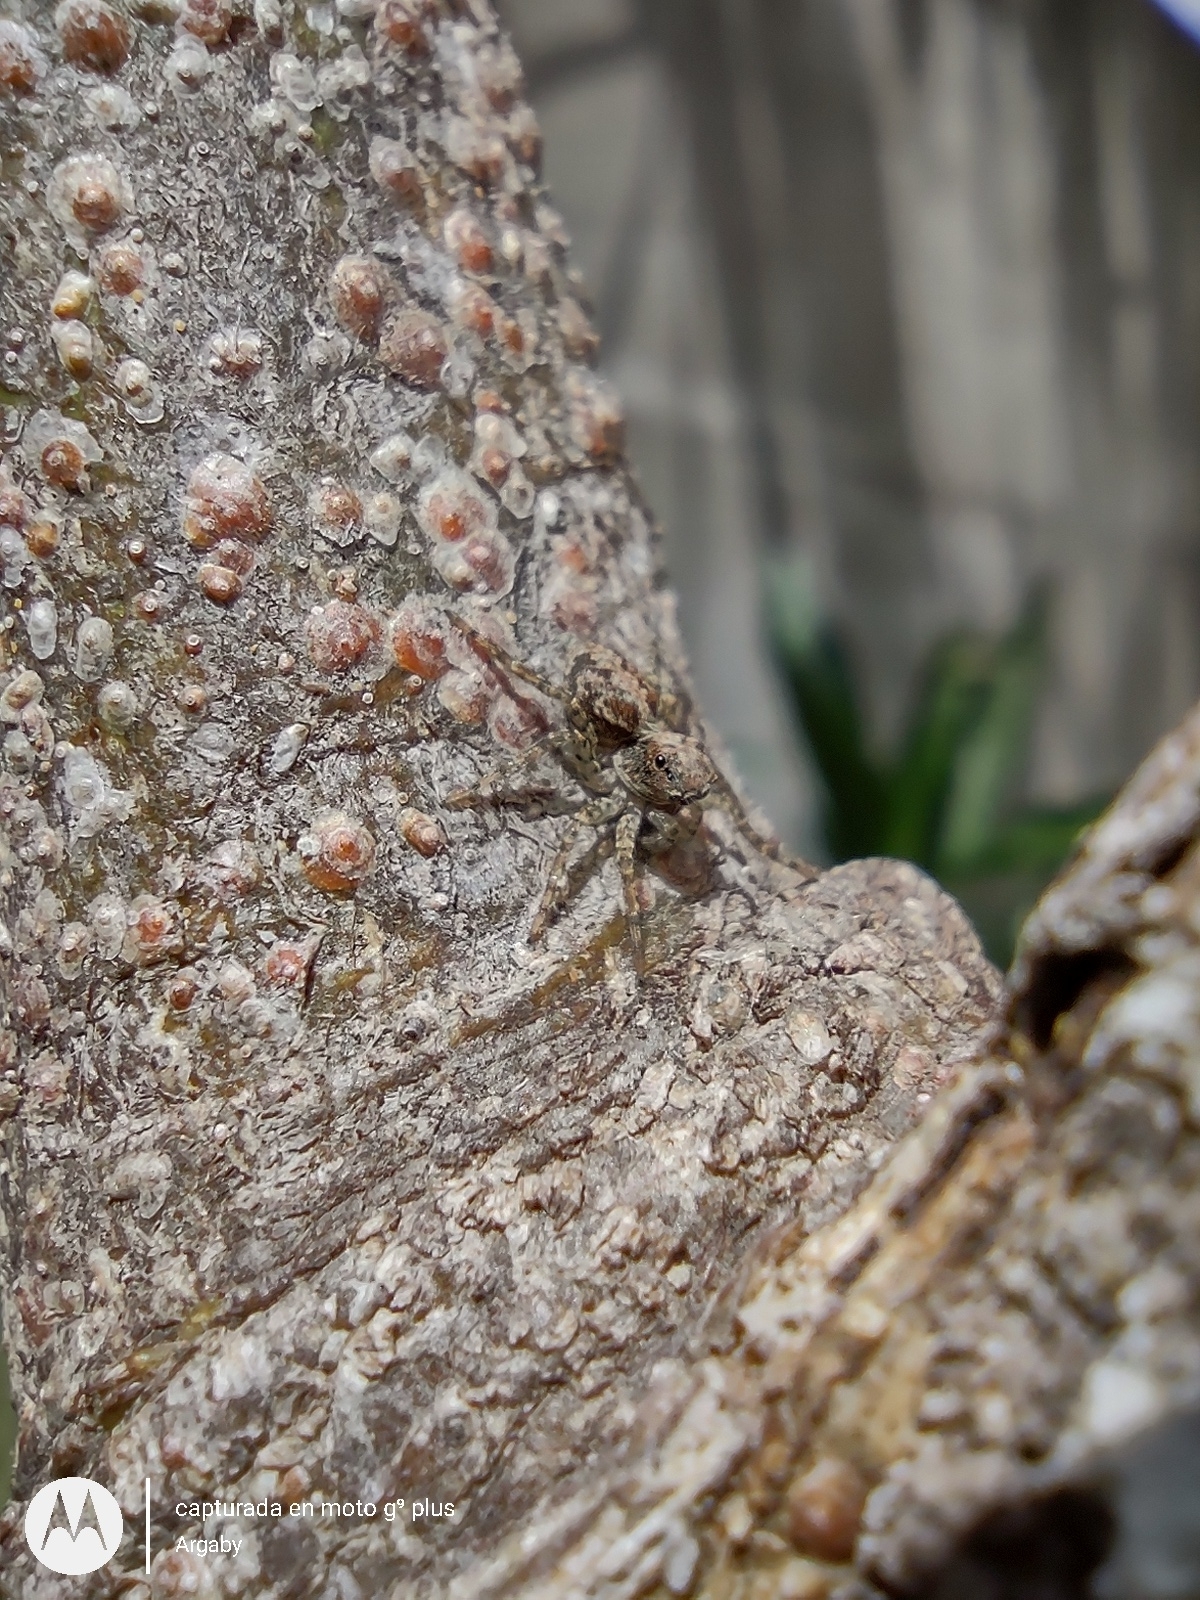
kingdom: Animalia
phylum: Arthropoda
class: Arachnida
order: Araneae
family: Salticidae
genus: Saitis
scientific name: Saitis variegatus
